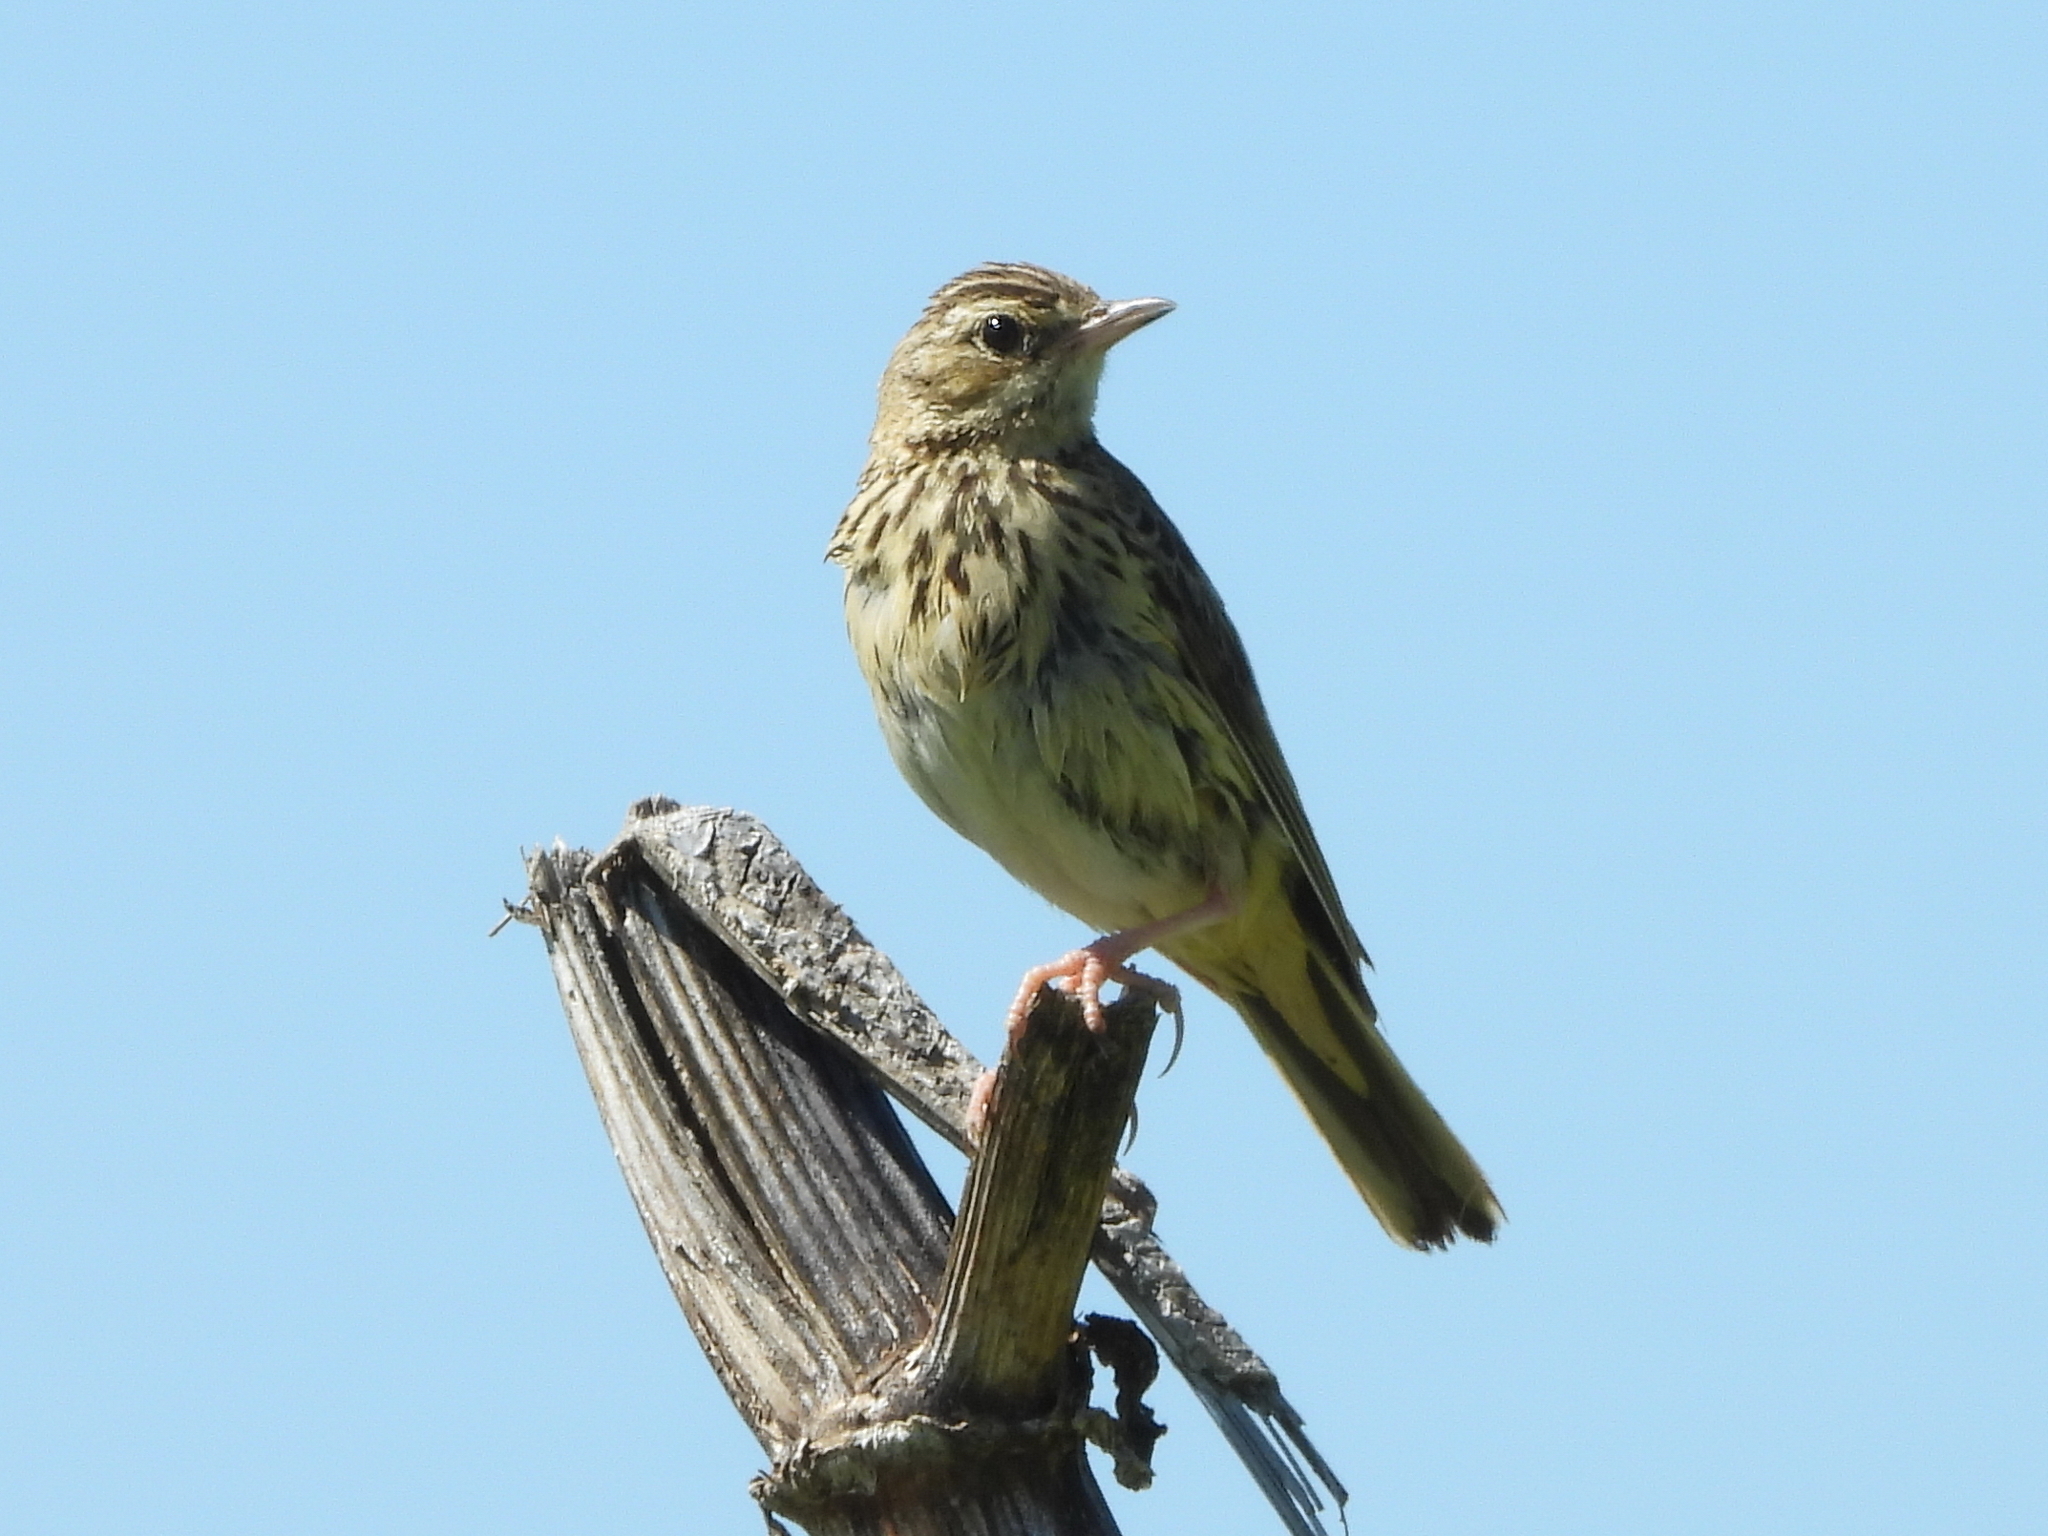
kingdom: Animalia
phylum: Chordata
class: Aves
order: Passeriformes
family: Motacillidae
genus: Anthus
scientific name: Anthus trivialis
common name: Tree pipit
